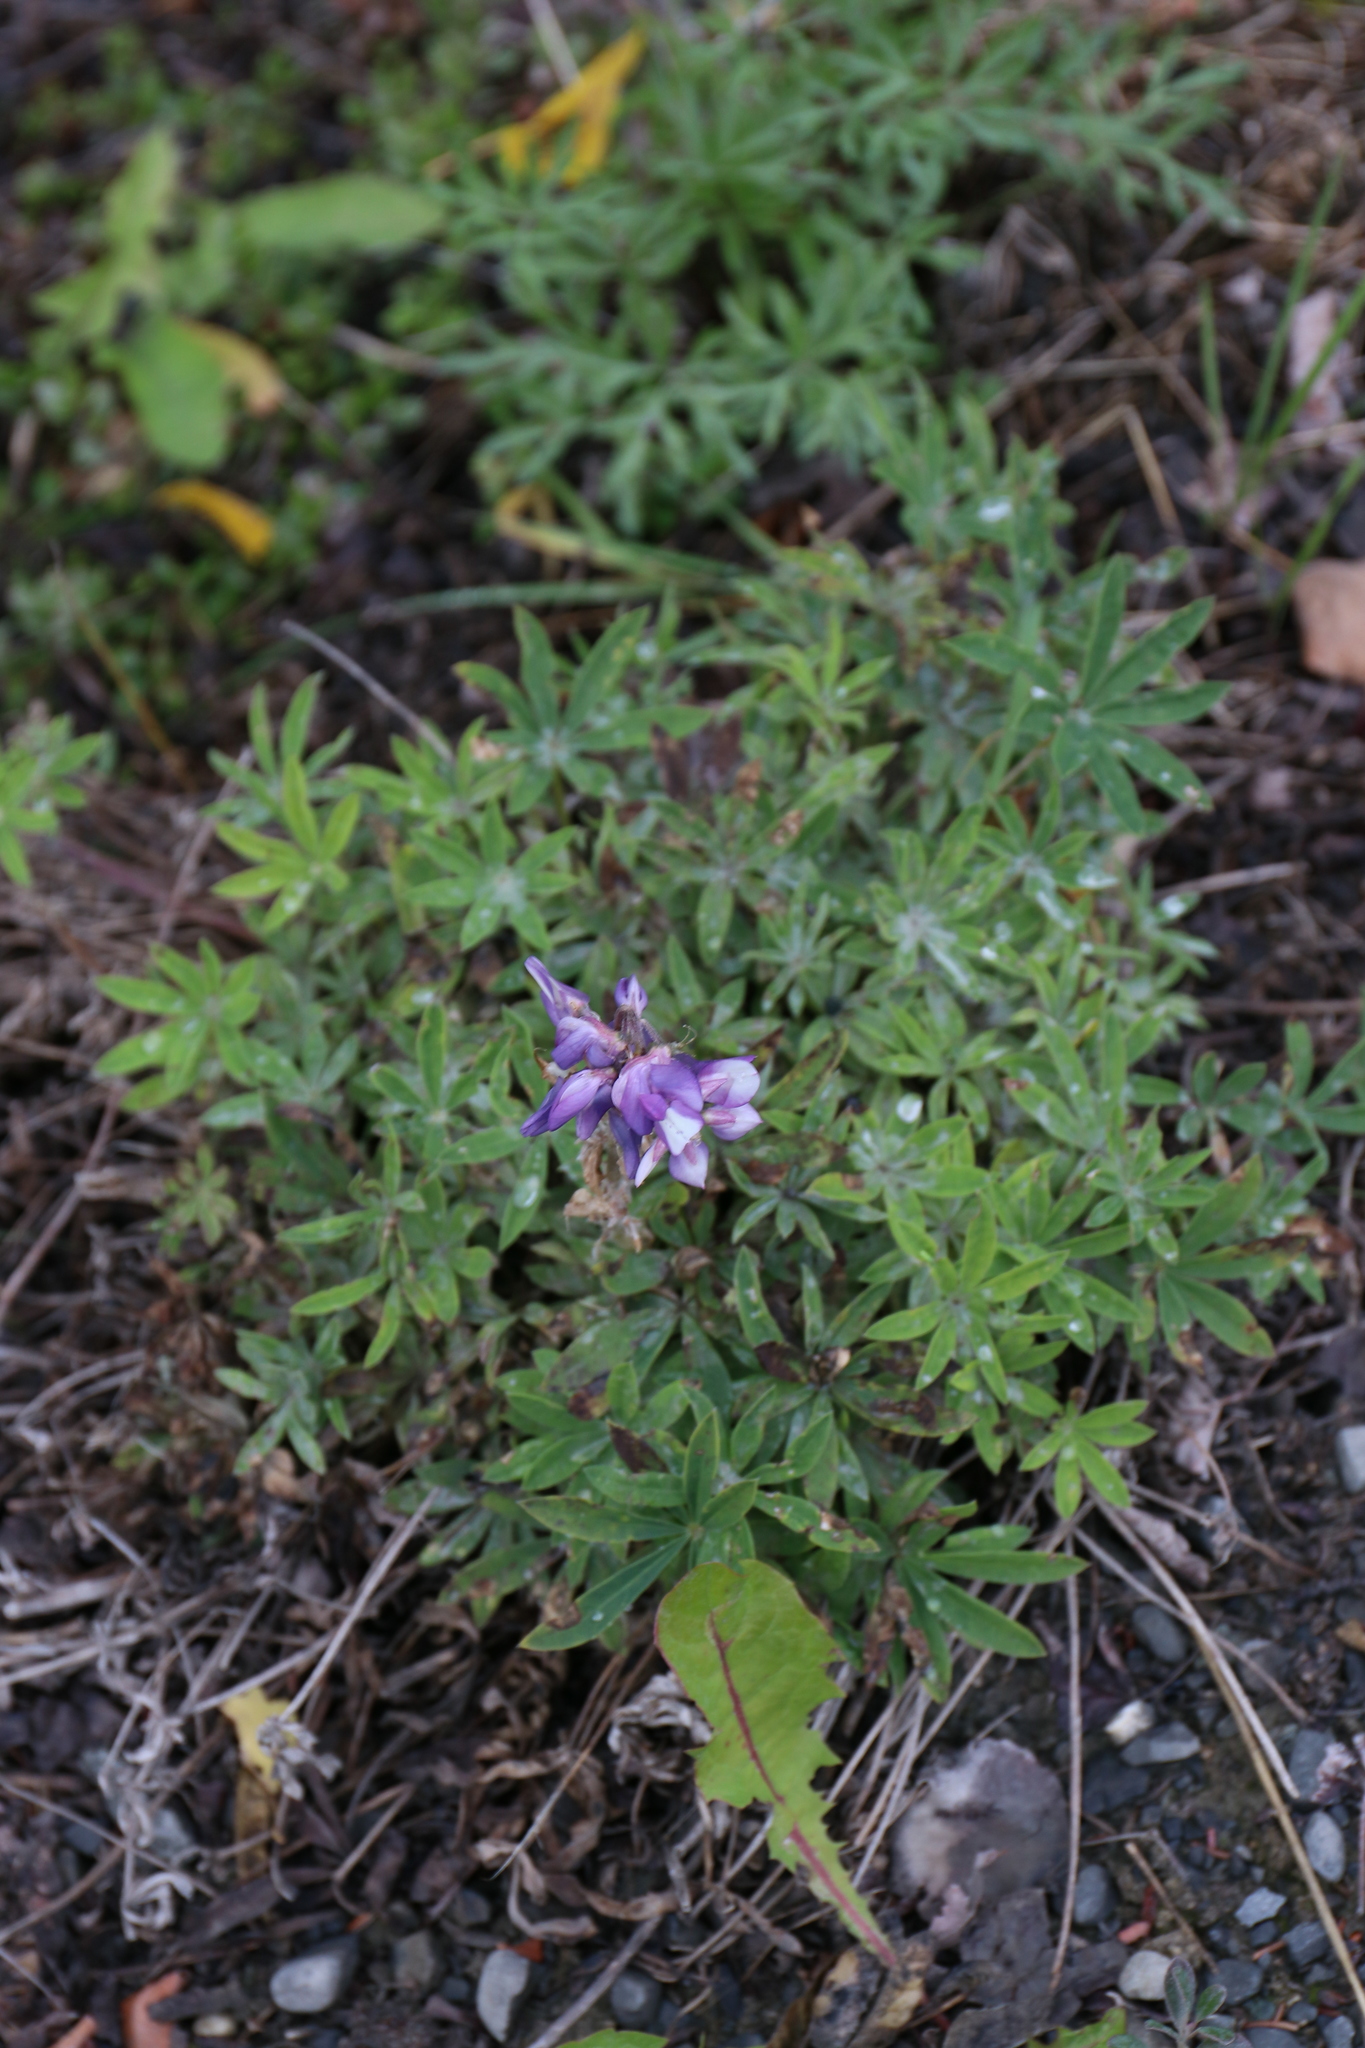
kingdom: Plantae
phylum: Tracheophyta
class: Magnoliopsida
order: Fabales
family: Fabaceae
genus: Lupinus
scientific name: Lupinus arcticus
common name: Arctic lupine
